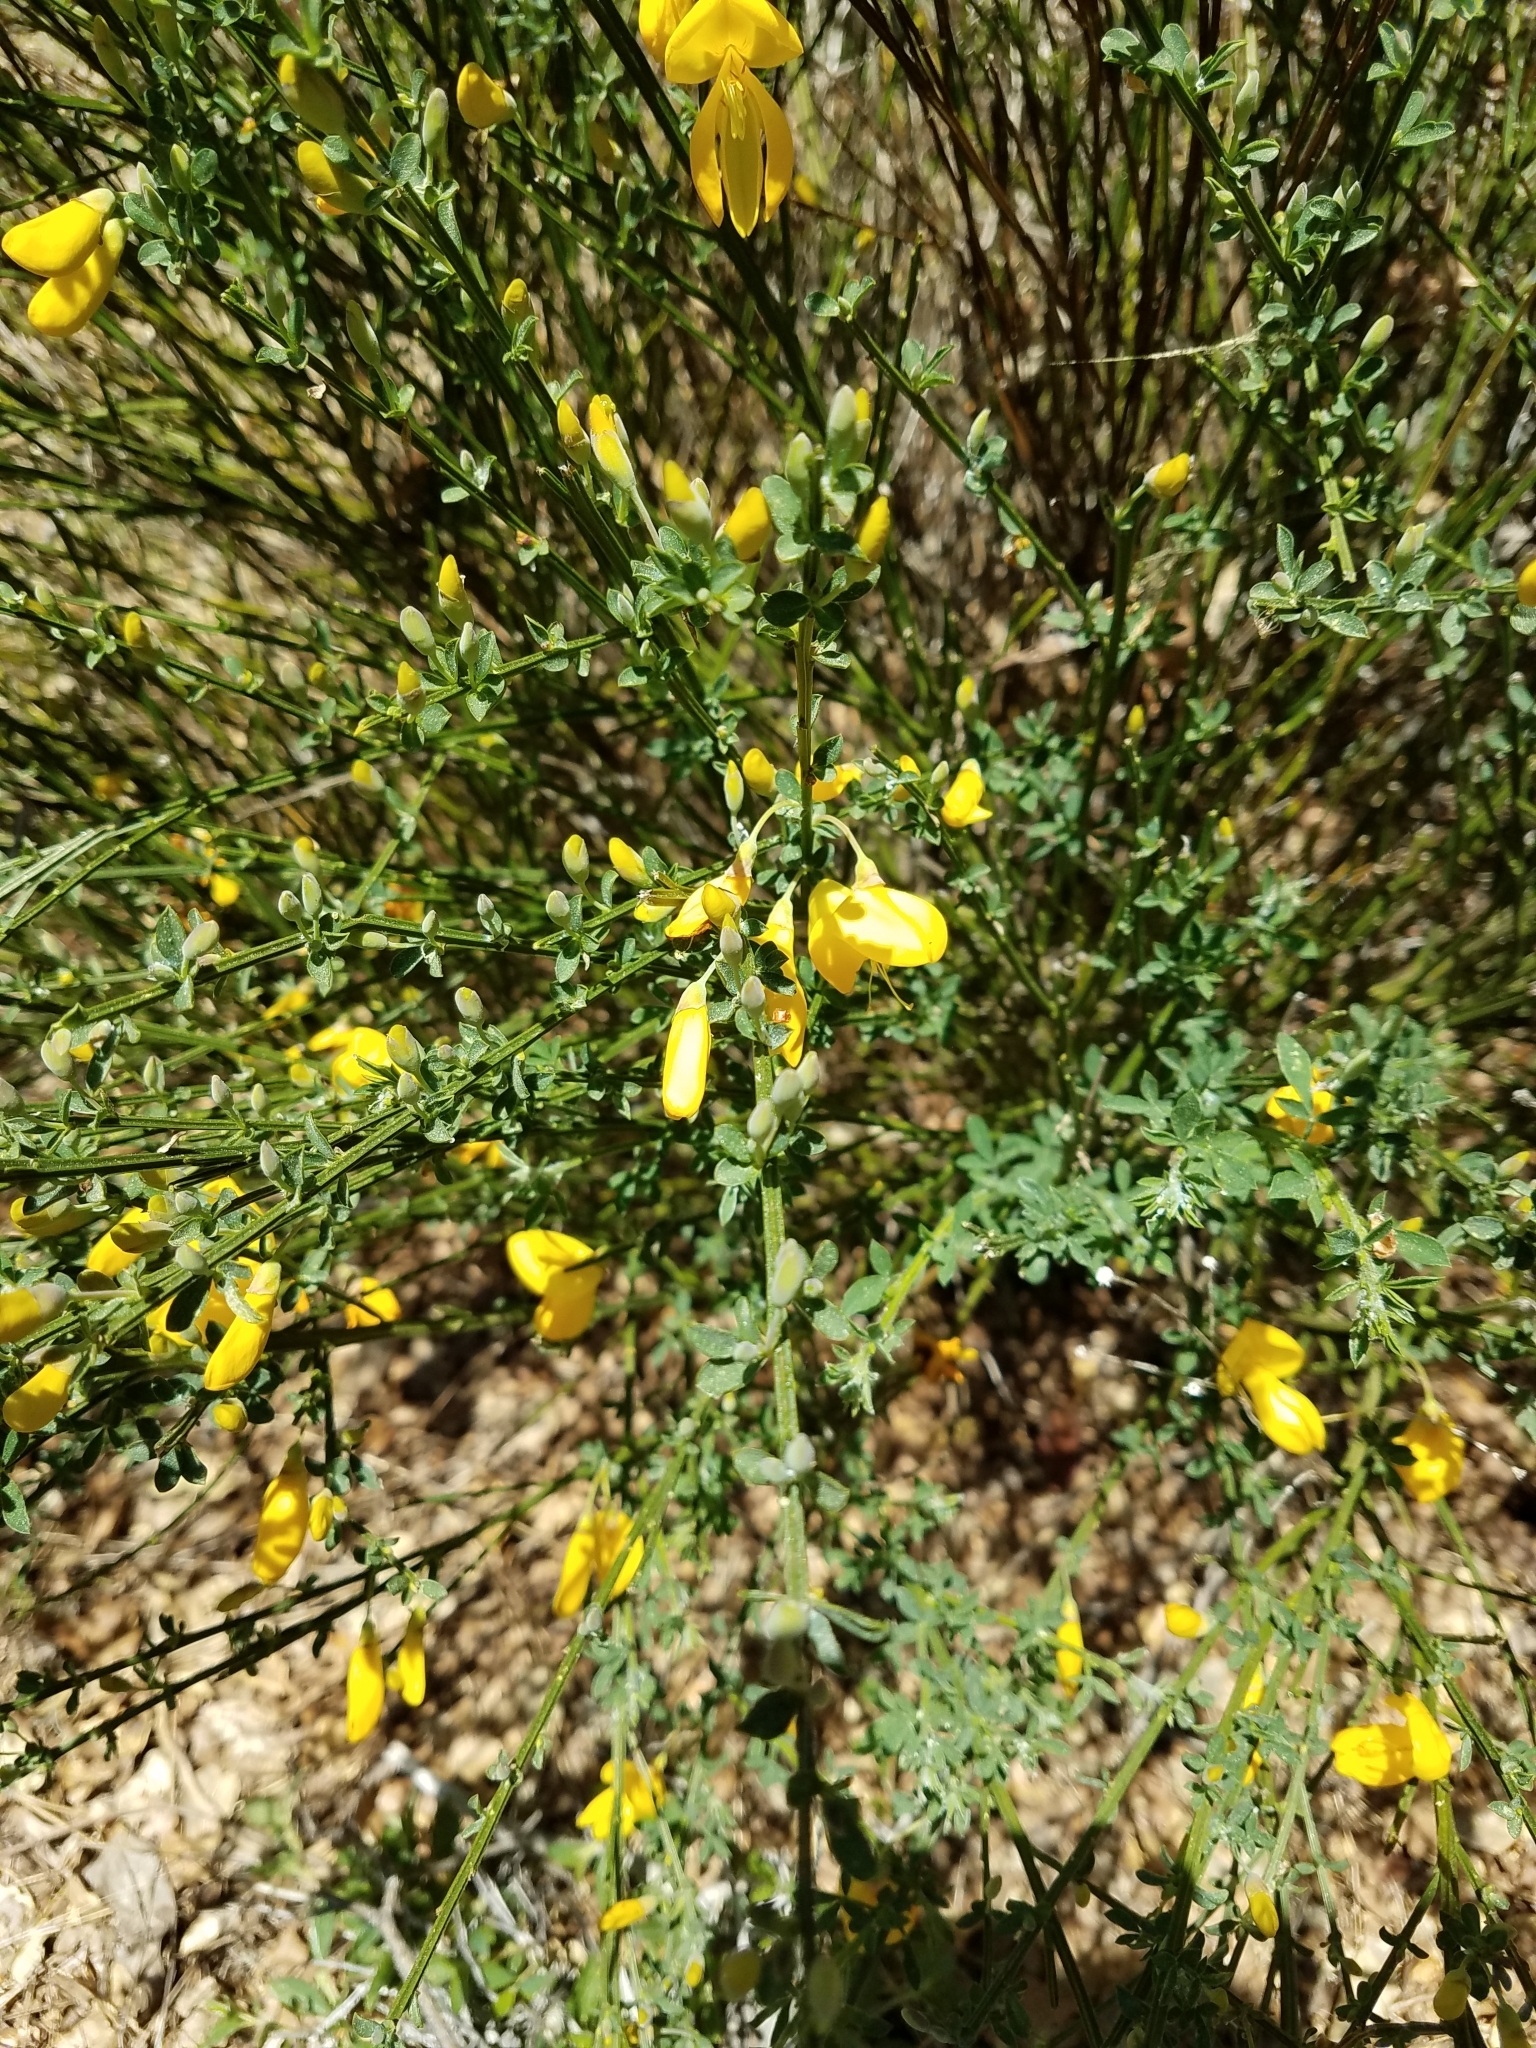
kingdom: Plantae
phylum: Tracheophyta
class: Magnoliopsida
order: Fabales
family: Fabaceae
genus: Cytisus
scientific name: Cytisus scoparius
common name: Scotch broom
